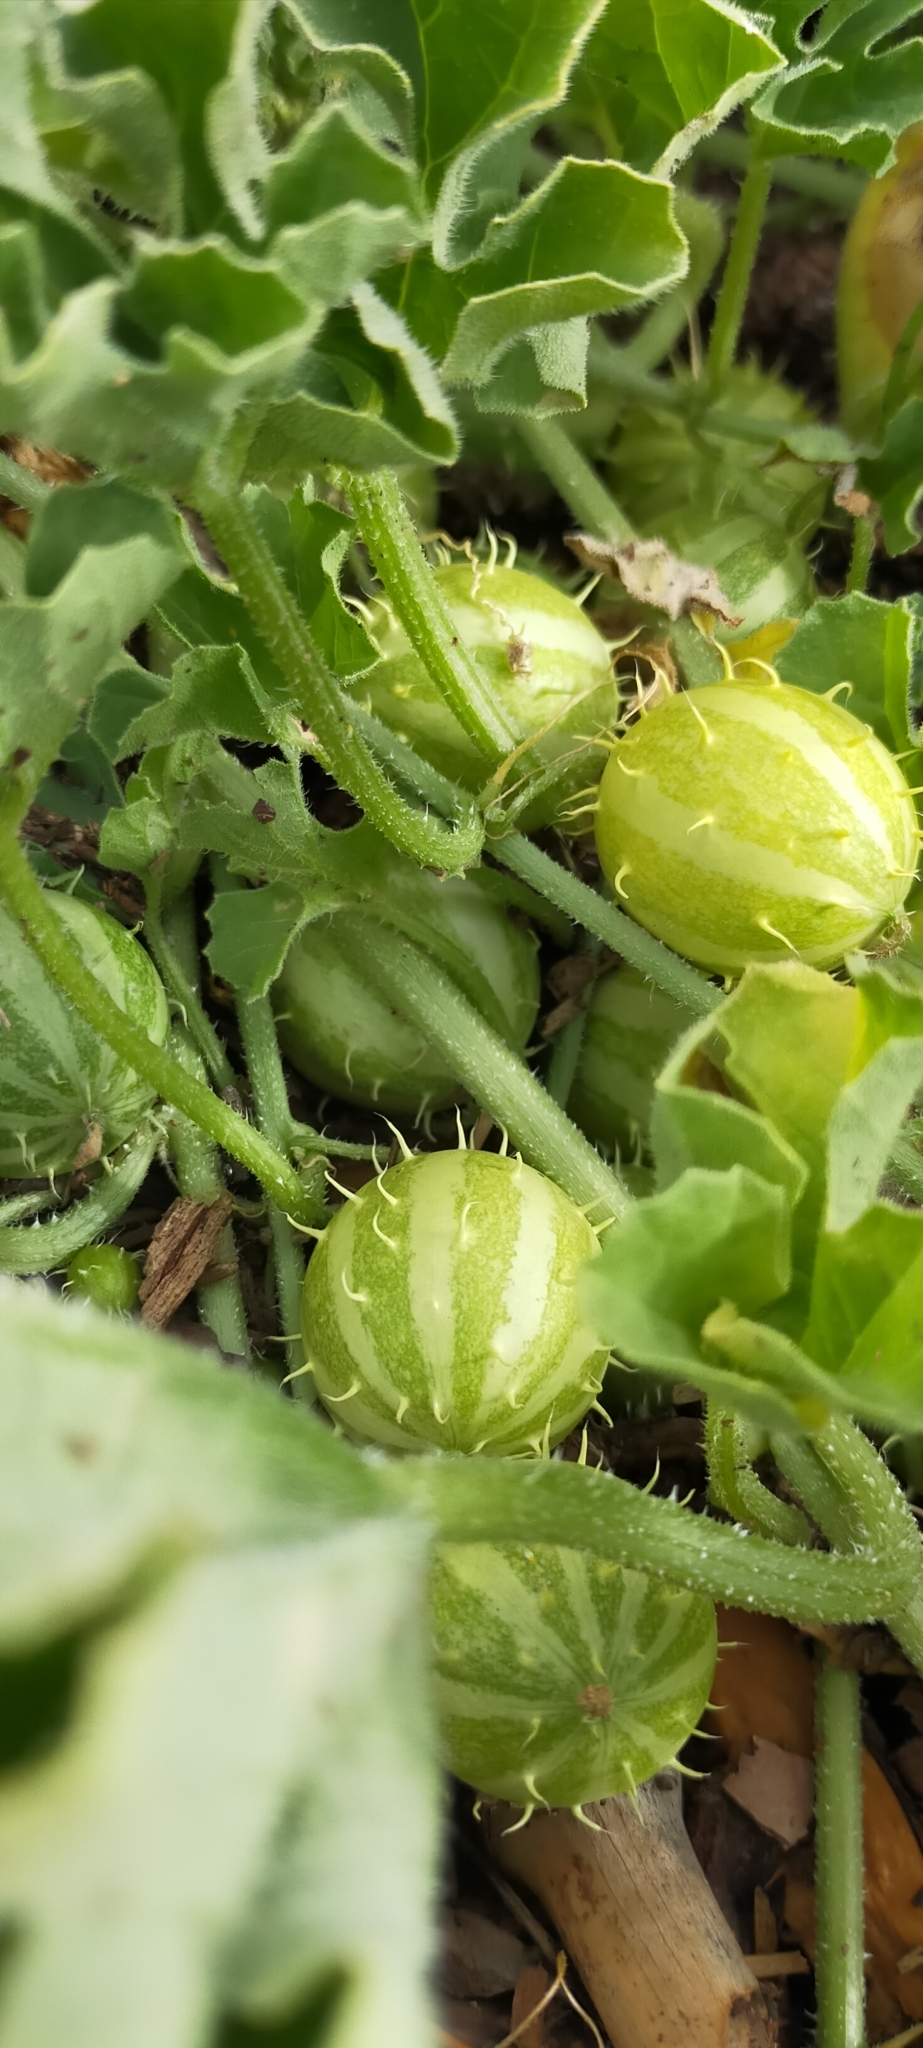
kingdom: Plantae
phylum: Tracheophyta
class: Magnoliopsida
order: Cucurbitales
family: Cucurbitaceae
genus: Cucumis
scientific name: Cucumis myriocarpus
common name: Gooseberry cucumber
